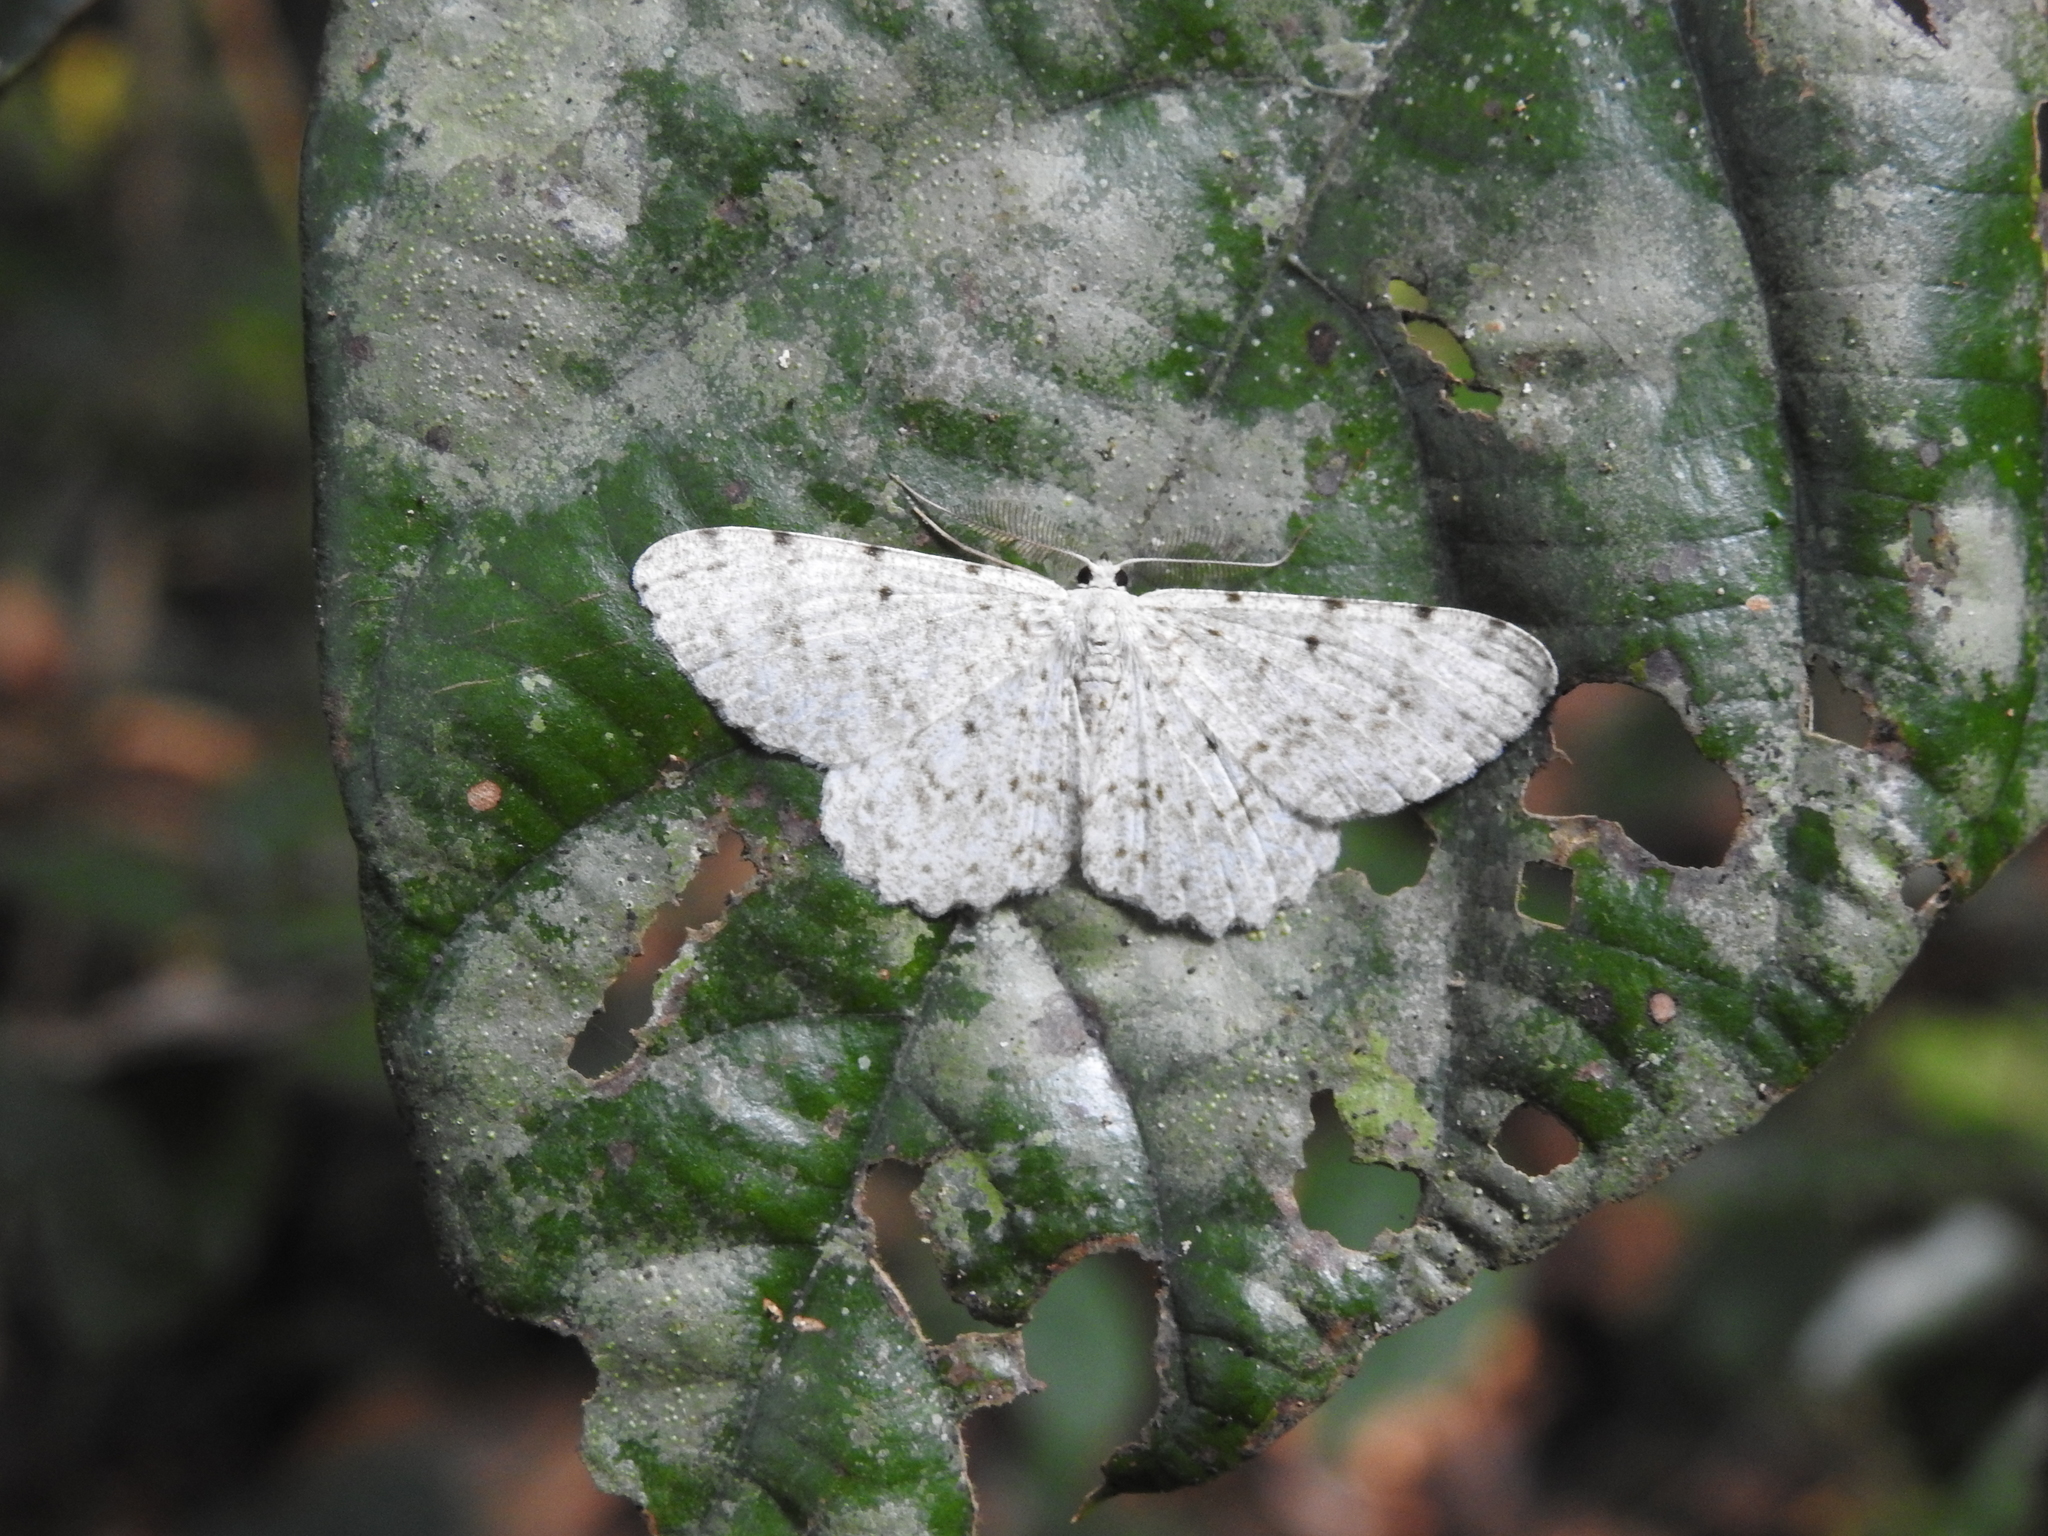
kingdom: Animalia
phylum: Arthropoda
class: Insecta
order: Lepidoptera
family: Geometridae
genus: Catoria
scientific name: Catoria sublavaria
